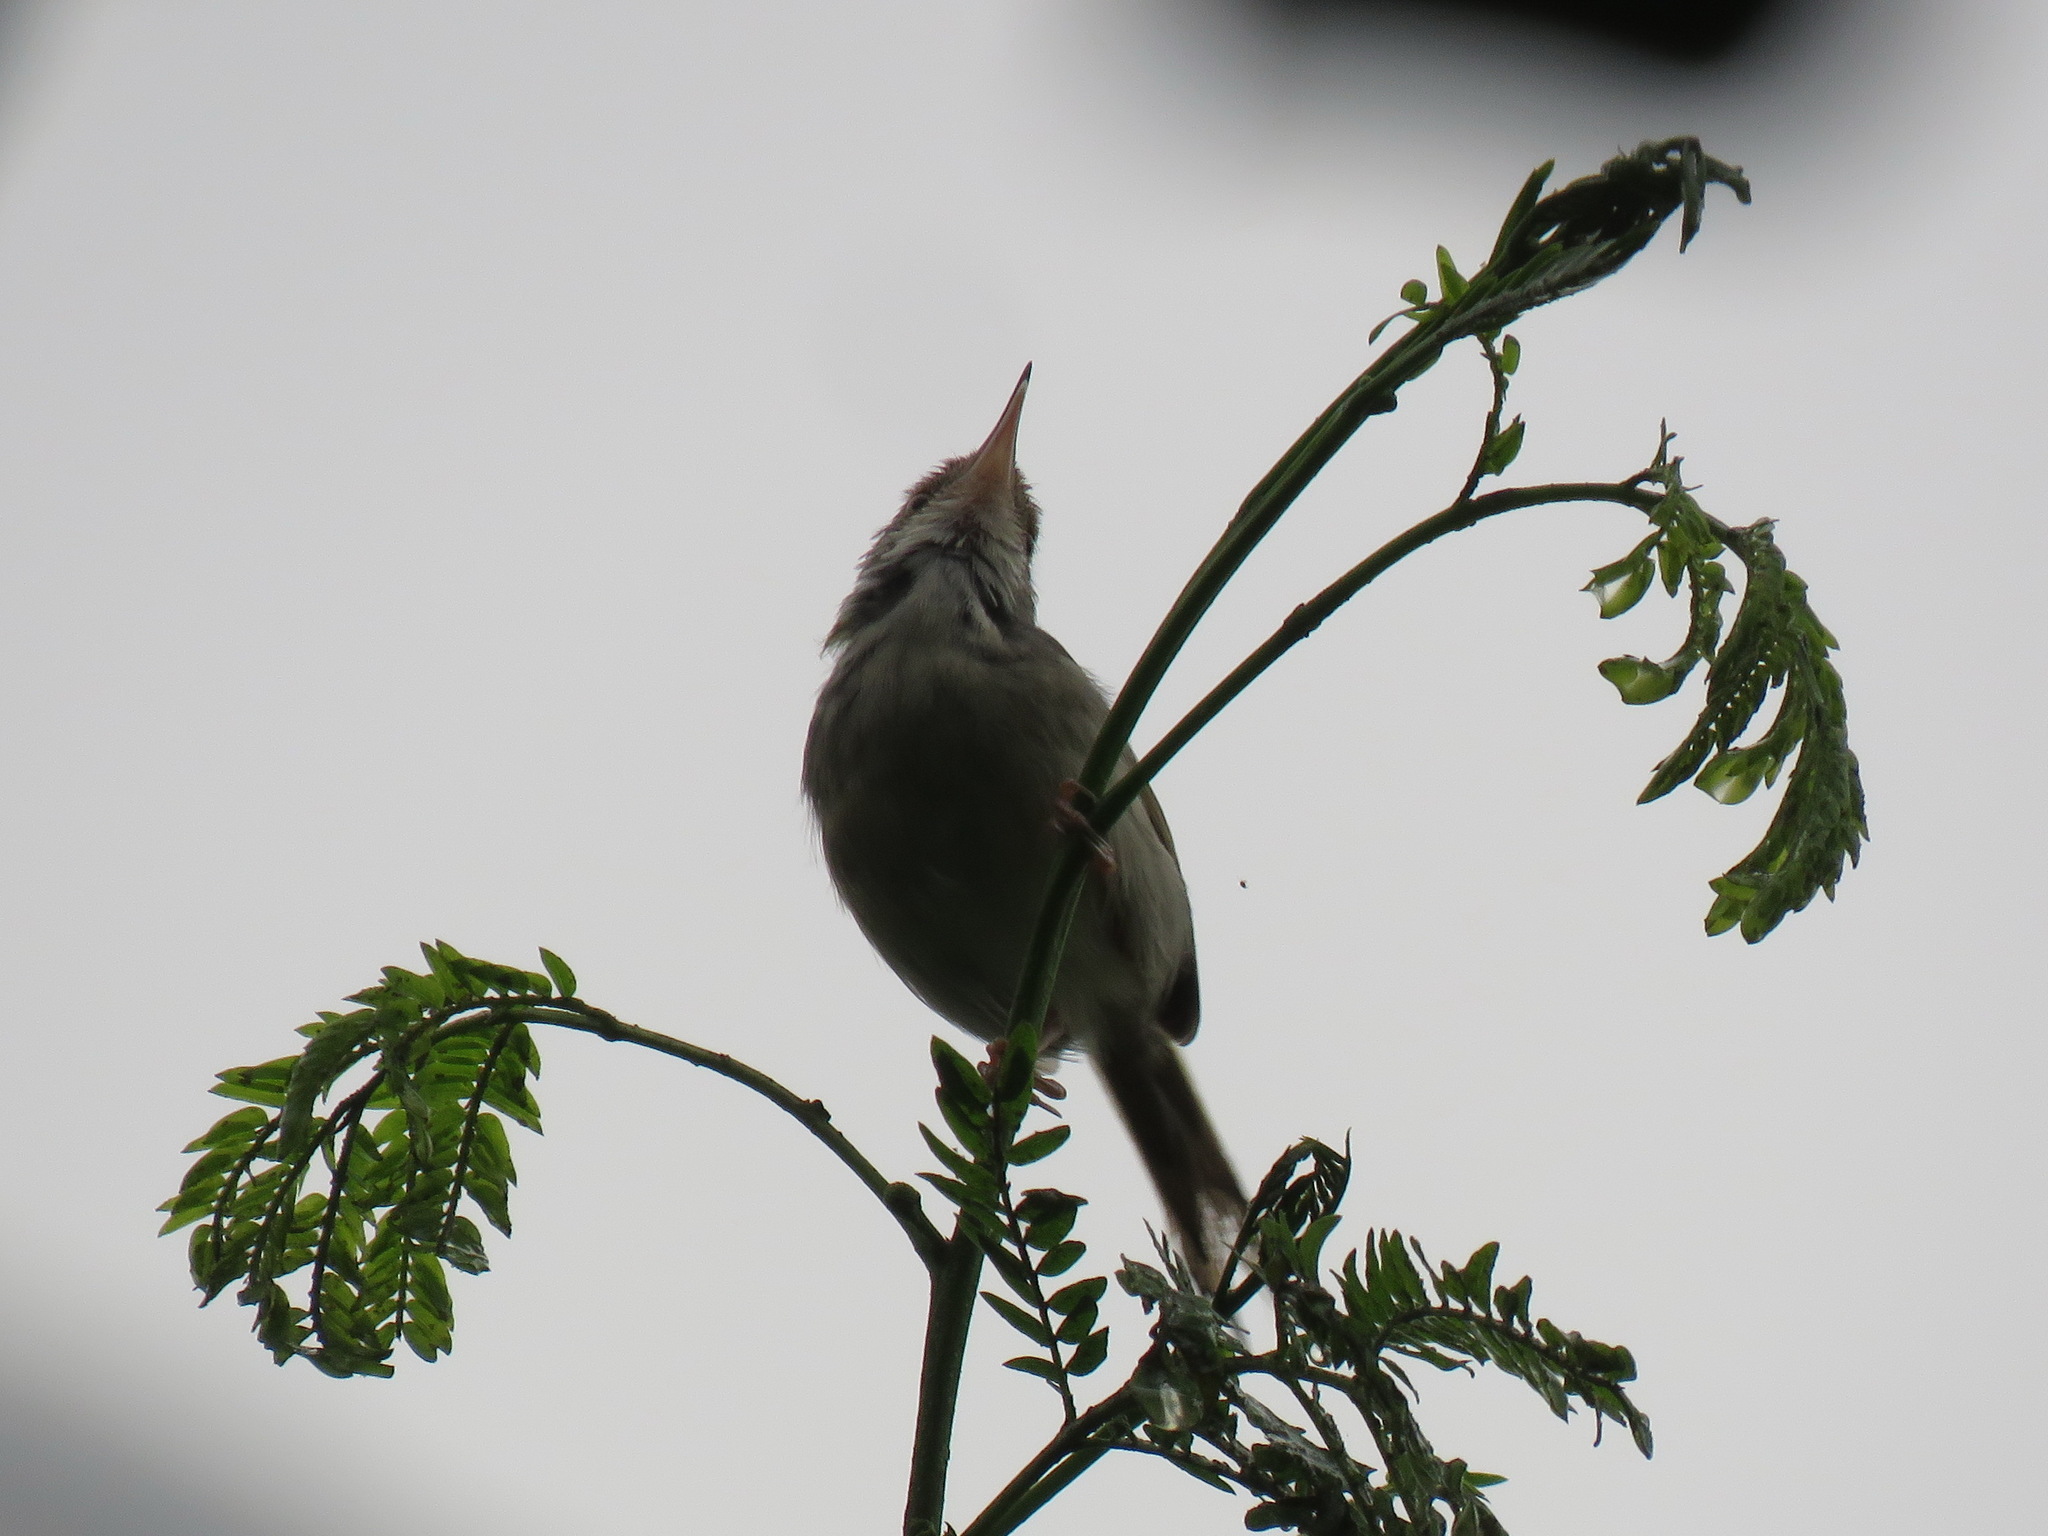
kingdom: Animalia
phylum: Chordata
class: Aves
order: Passeriformes
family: Cisticolidae
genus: Orthotomus
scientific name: Orthotomus sutorius
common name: Common tailorbird
